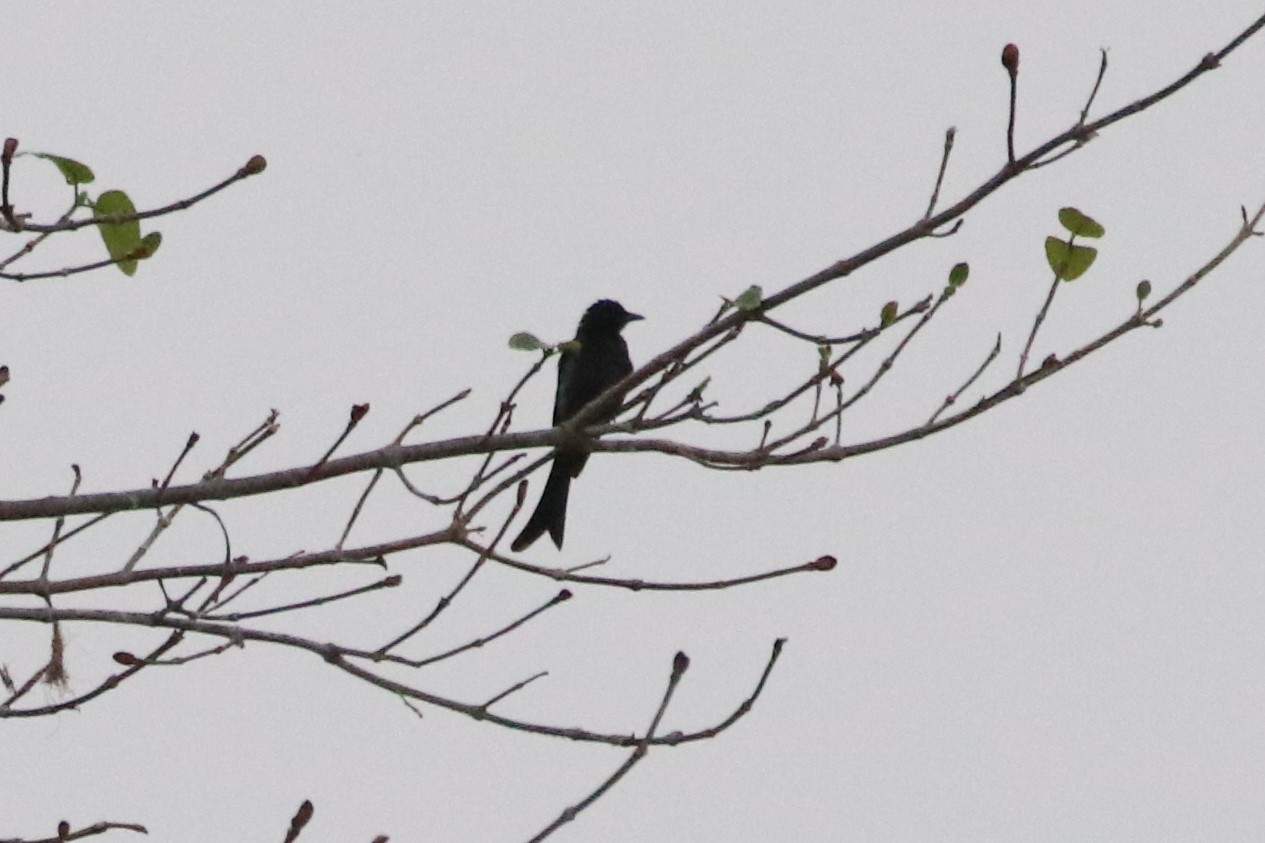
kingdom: Animalia
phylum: Chordata
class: Aves
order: Passeriformes
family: Dicruridae
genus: Dicrurus
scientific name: Dicrurus macrocercus
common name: Black drongo
